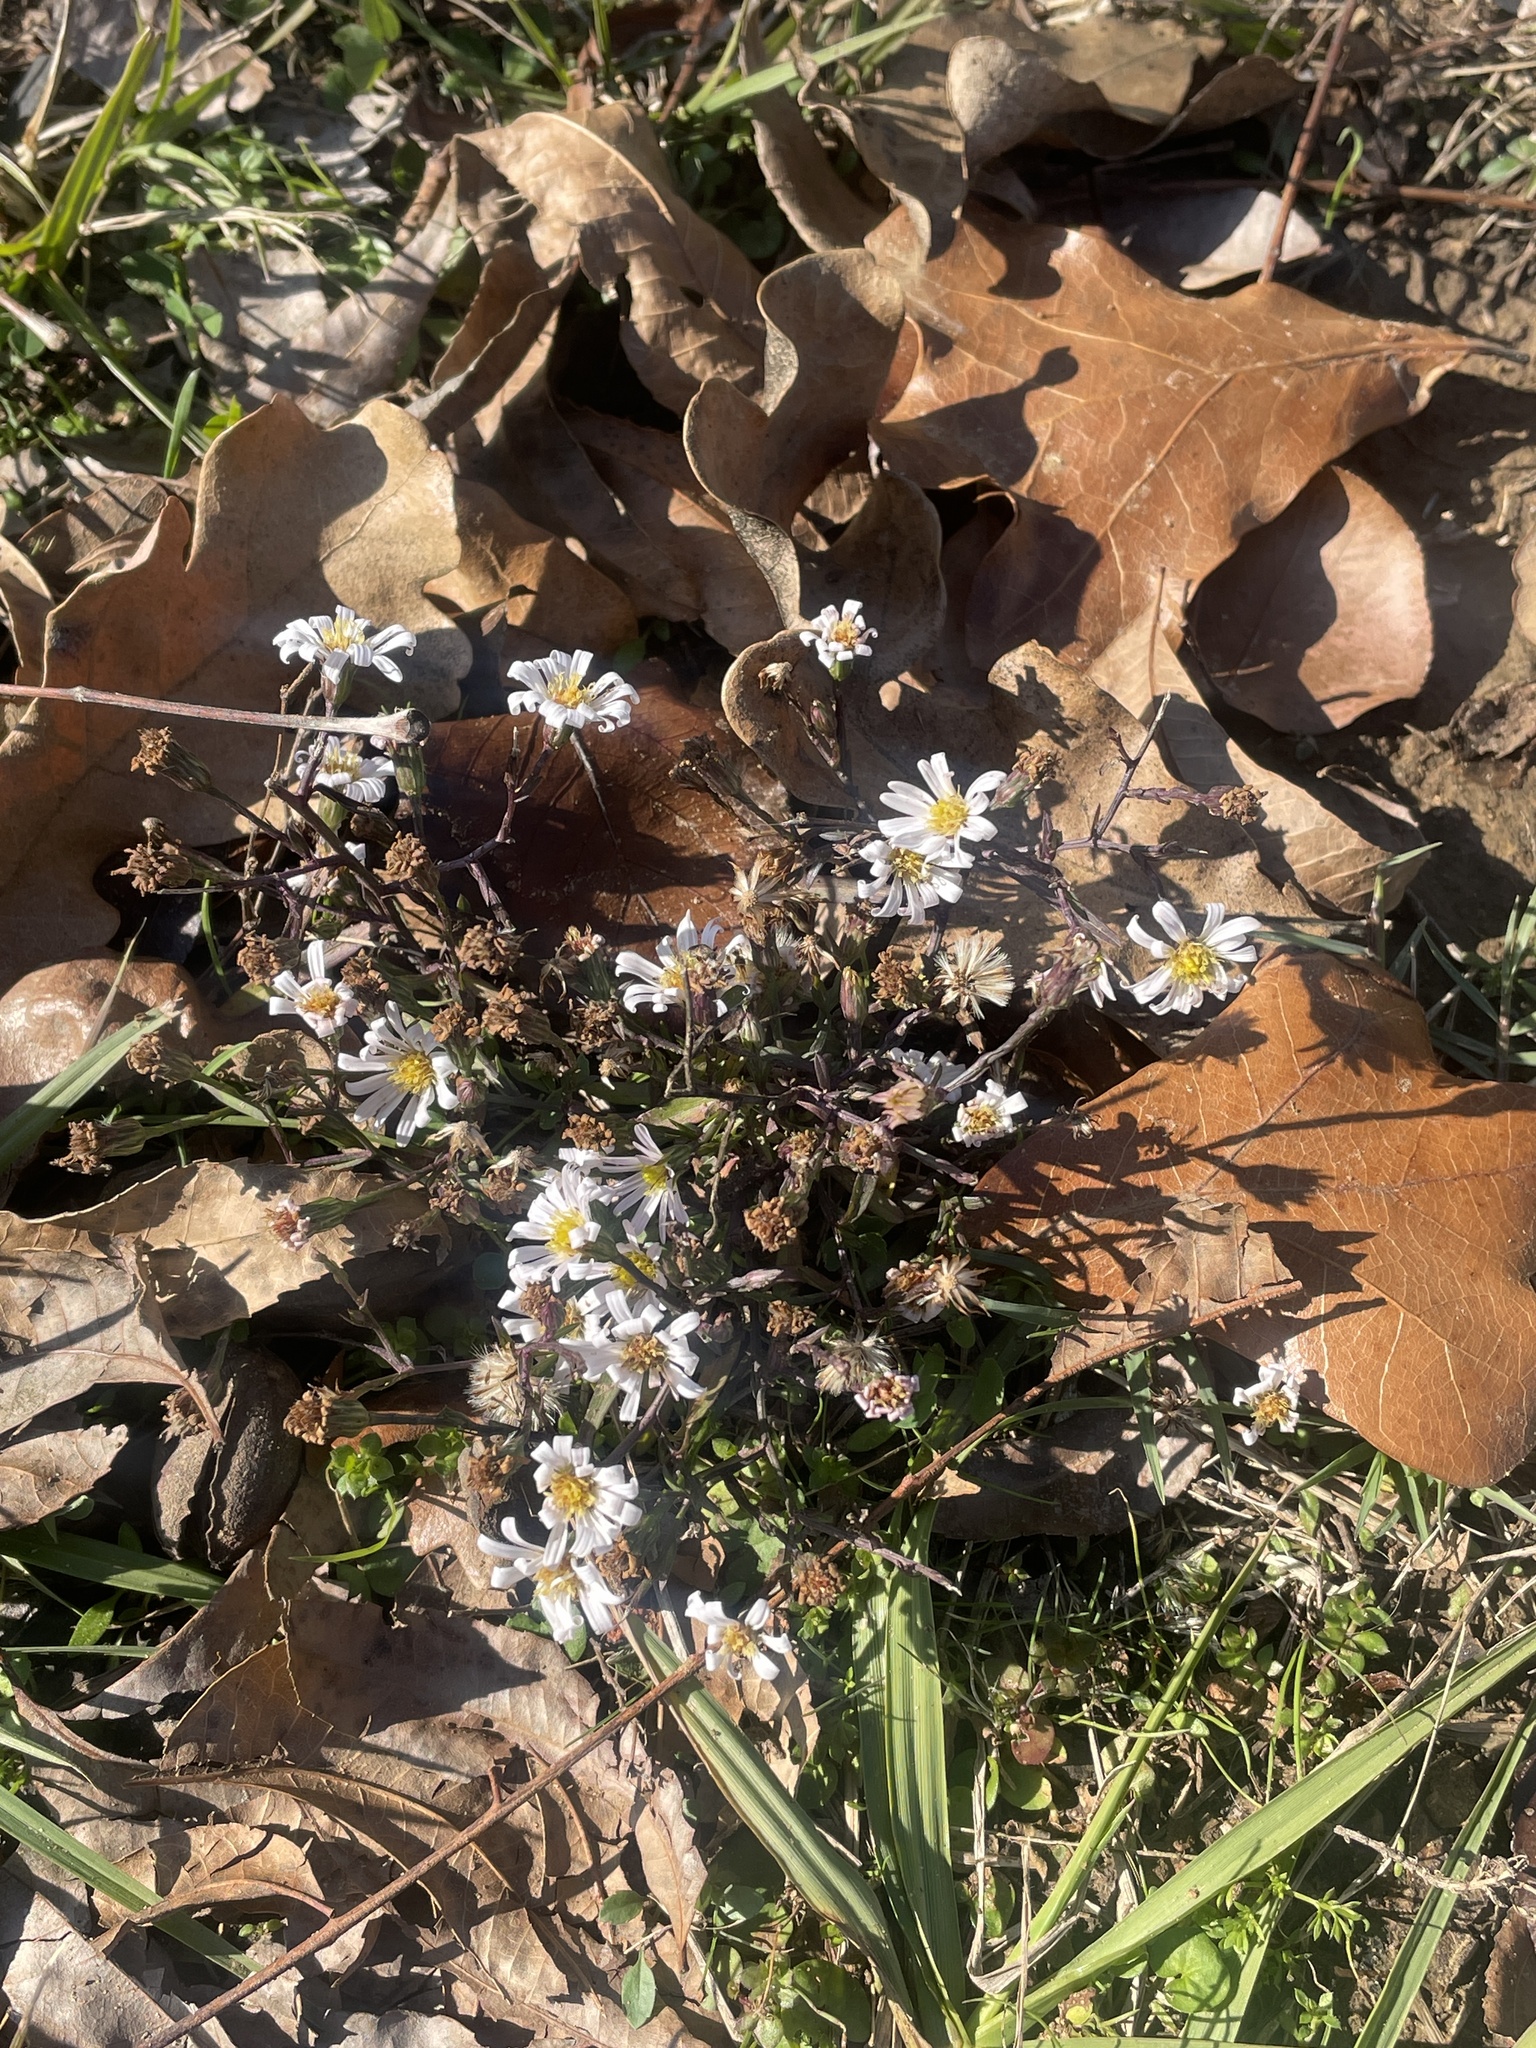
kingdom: Plantae
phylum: Tracheophyta
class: Magnoliopsida
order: Asterales
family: Asteraceae
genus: Symphyotrichum
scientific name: Symphyotrichum divaricatum
